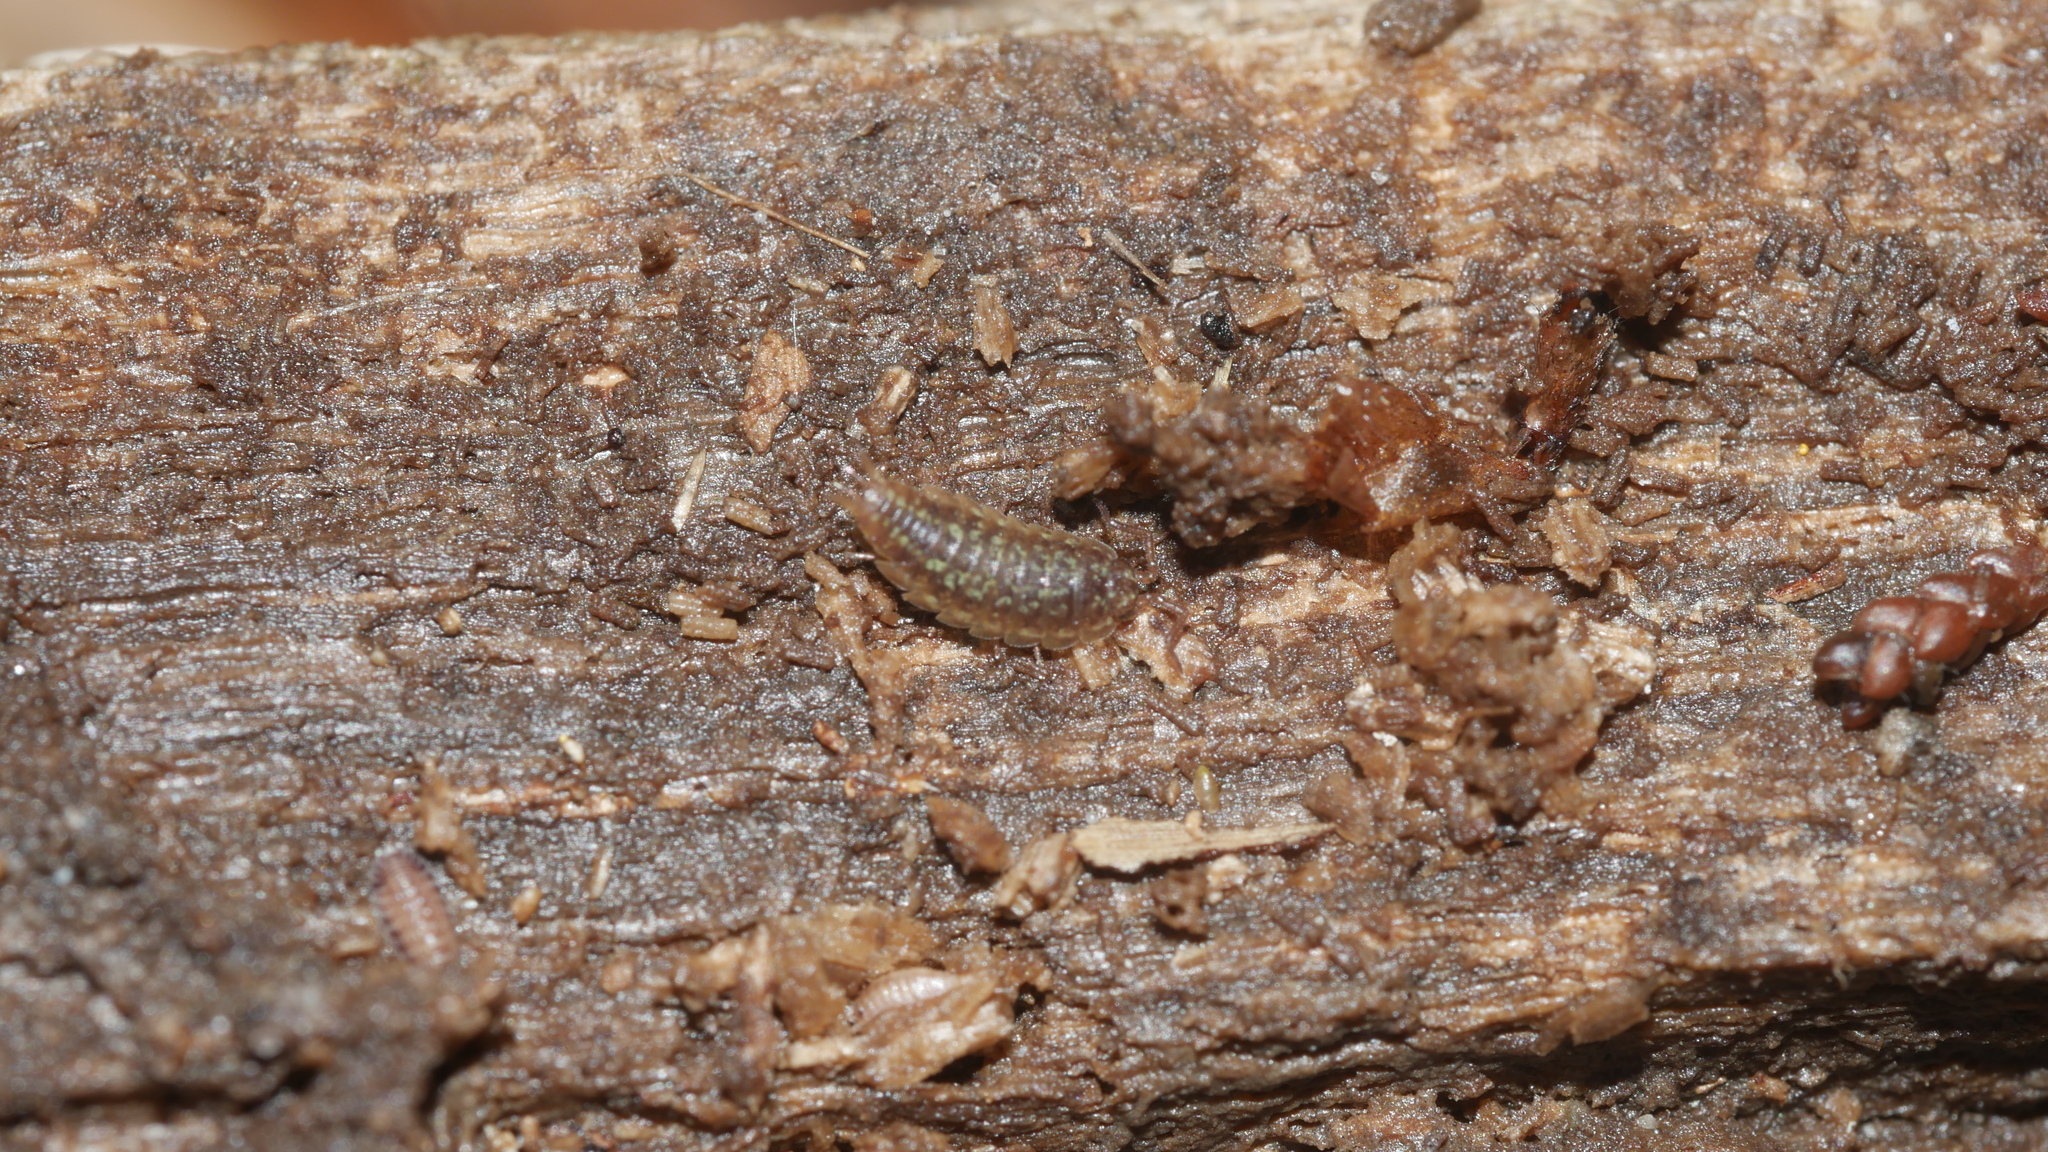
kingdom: Animalia
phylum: Arthropoda
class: Malacostraca
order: Isopoda
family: Halophilosciidae
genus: Littorophiloscia
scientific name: Littorophiloscia vittata
